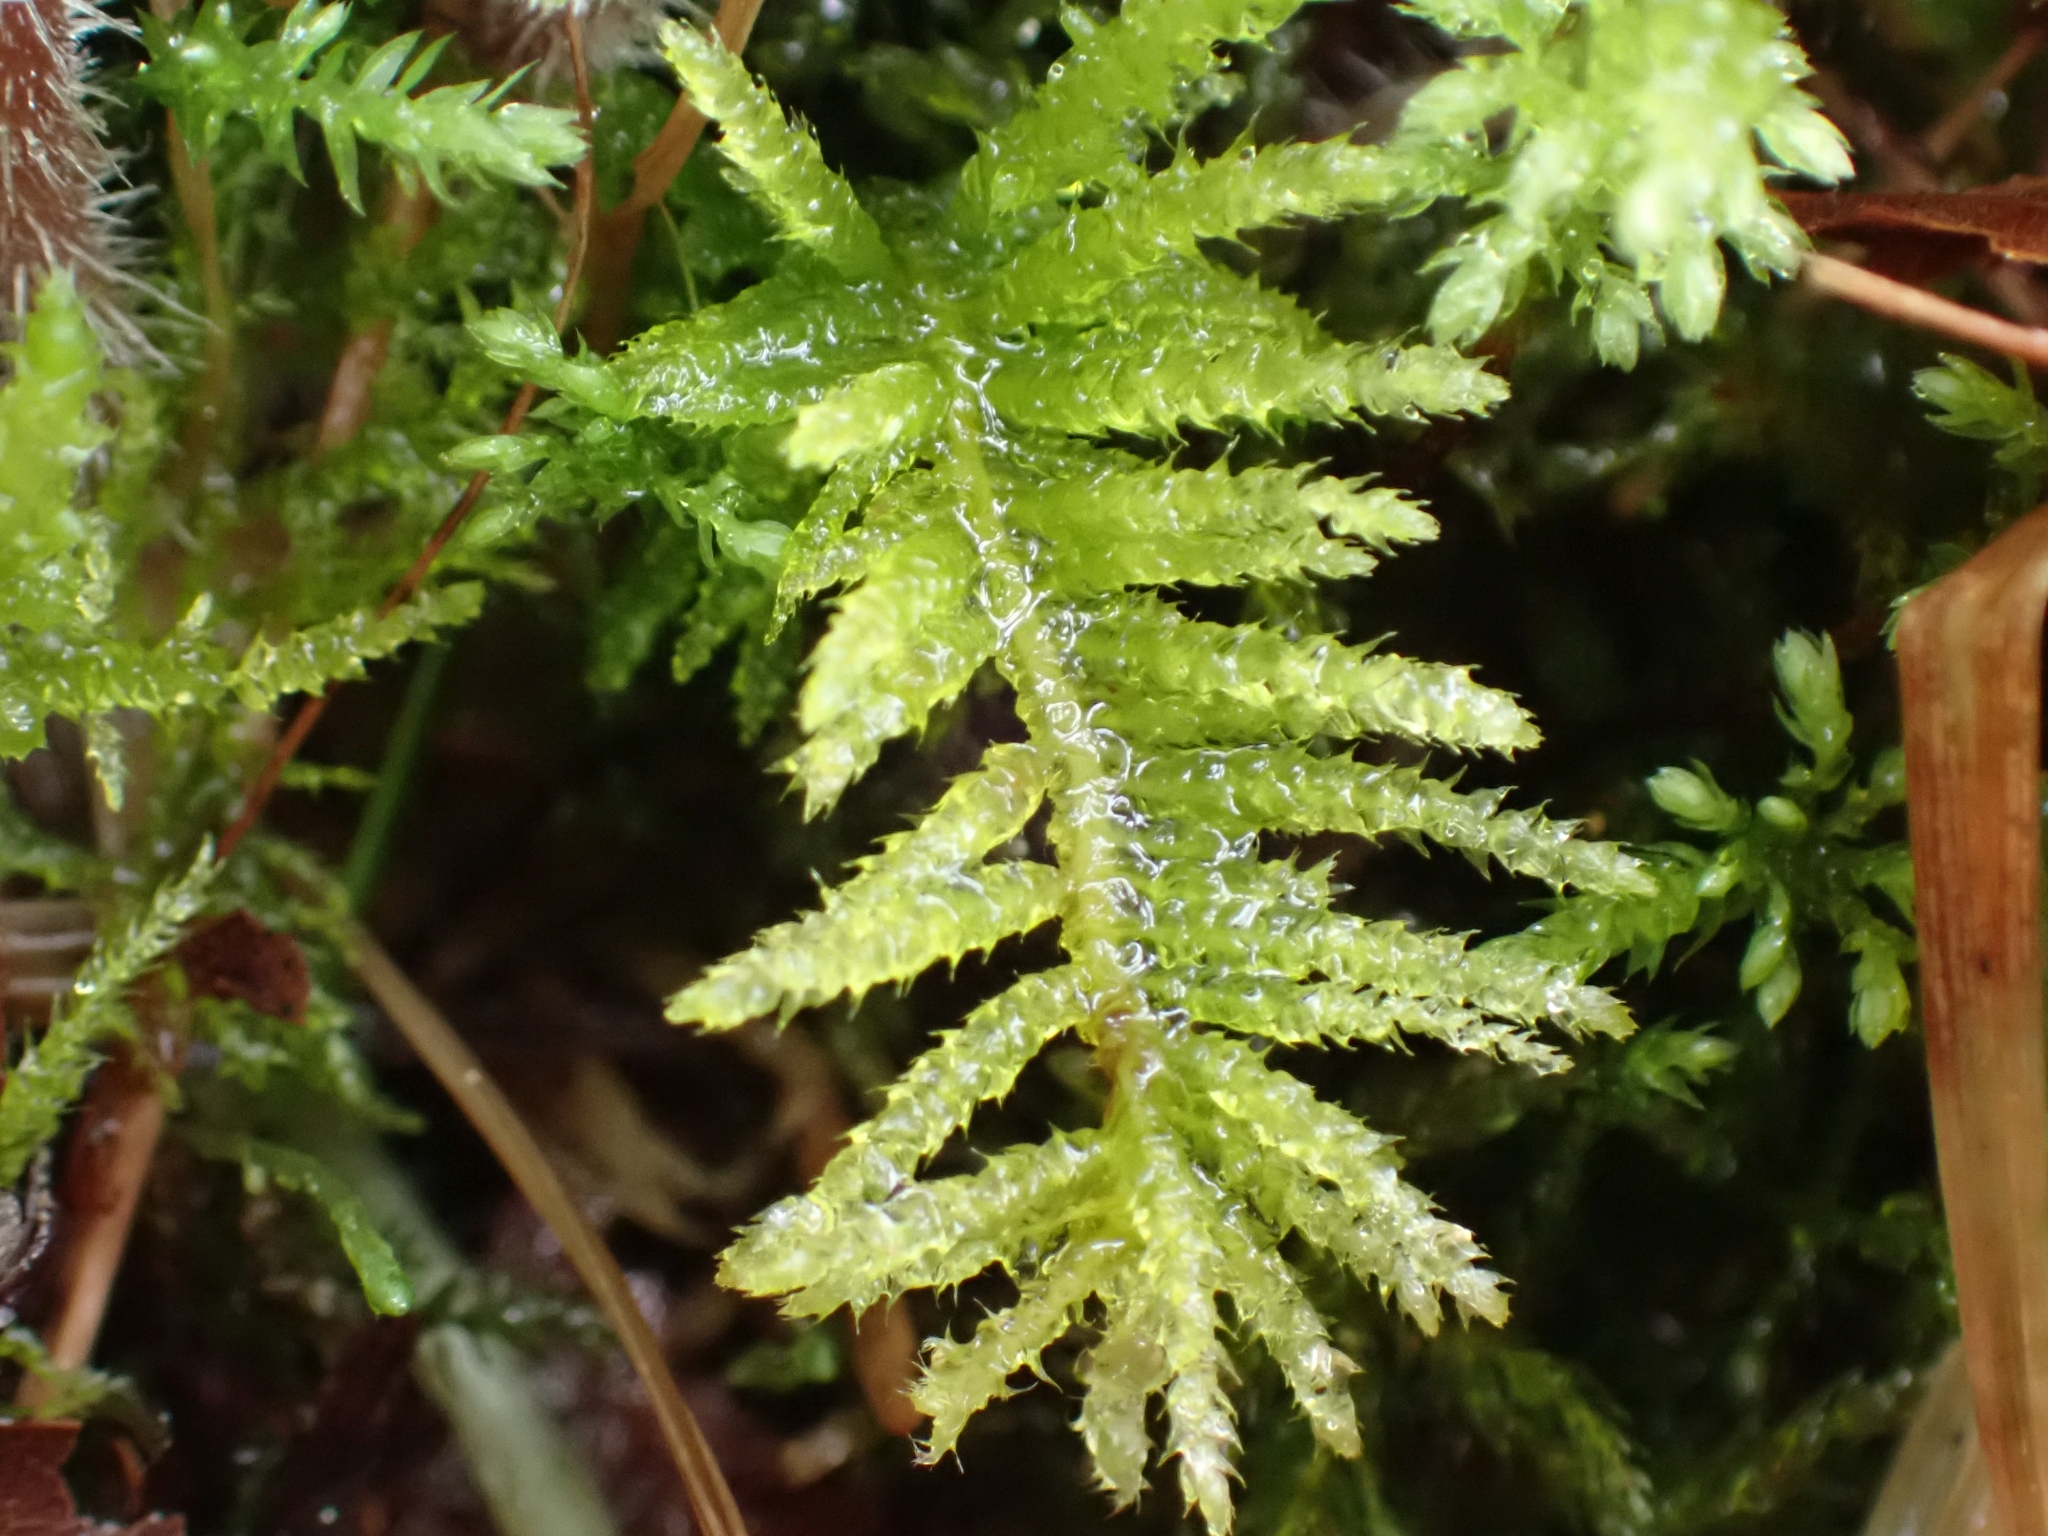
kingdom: Plantae
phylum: Bryophyta
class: Bryopsida
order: Hypnales
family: Brachytheciaceae
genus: Kindbergia
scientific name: Kindbergia oregana
